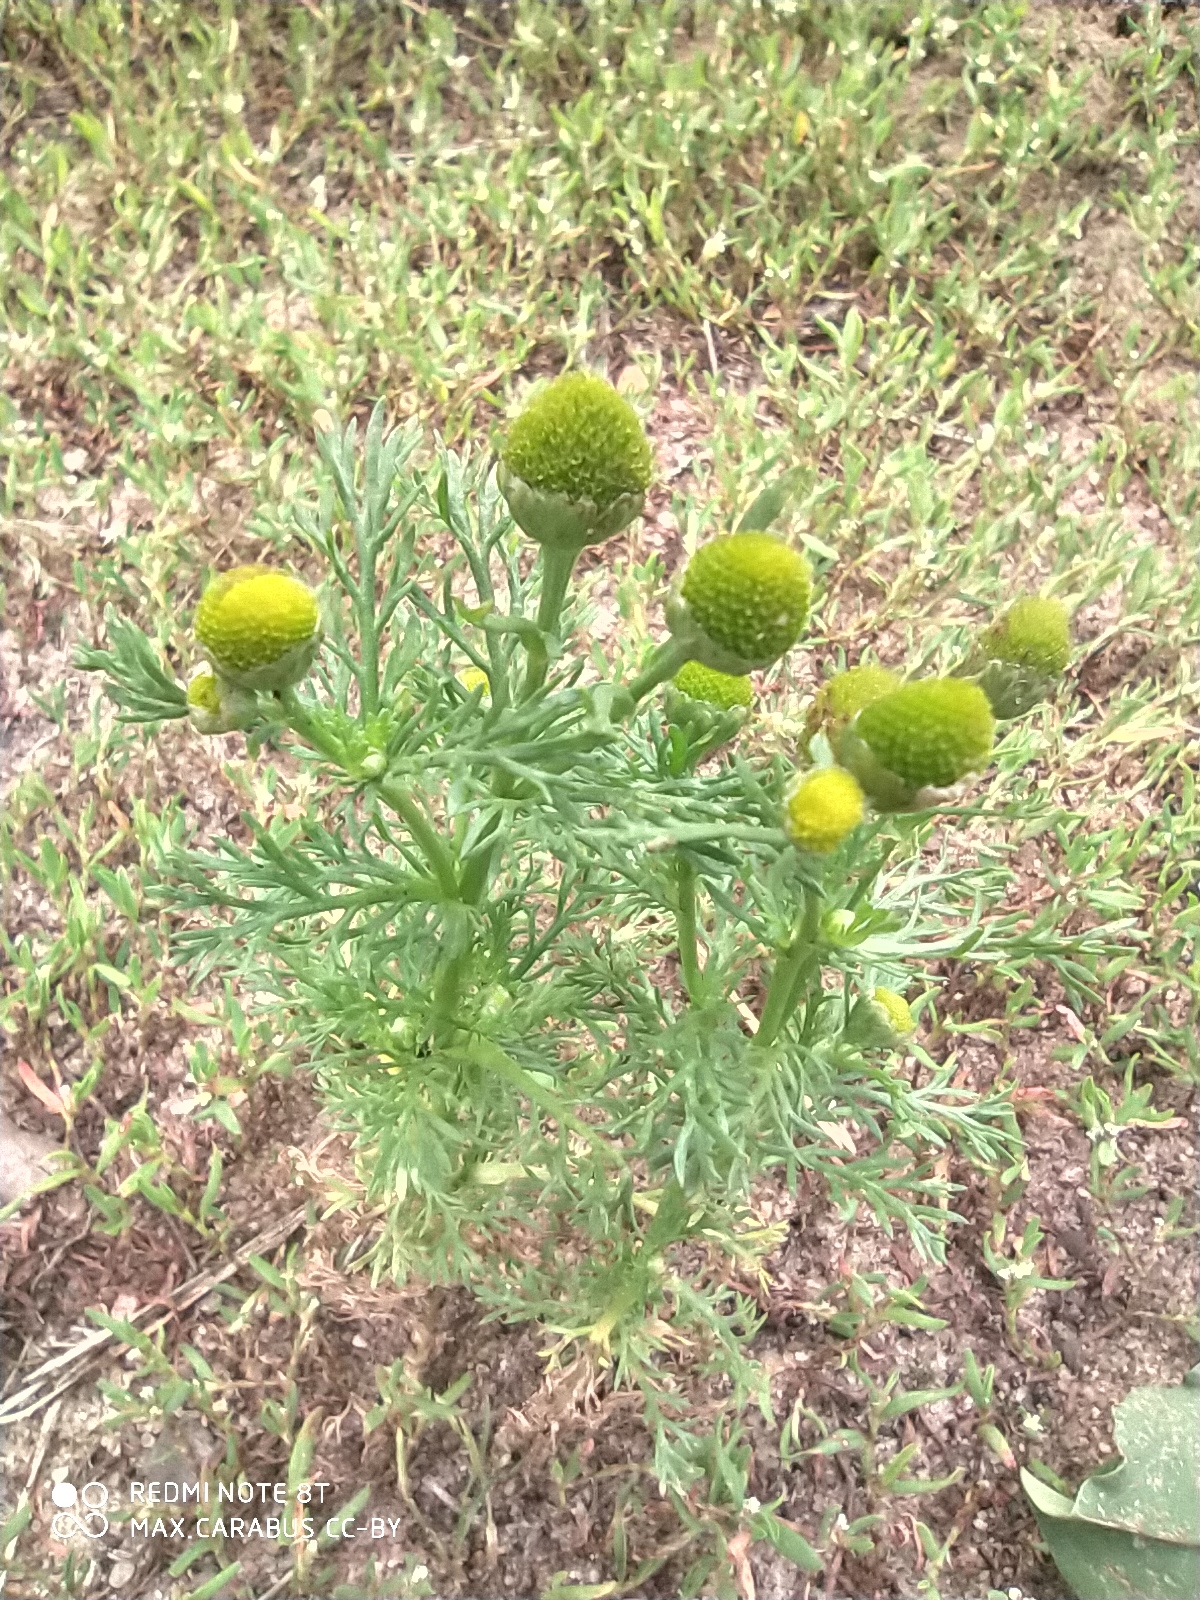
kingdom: Plantae
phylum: Tracheophyta
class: Magnoliopsida
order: Asterales
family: Asteraceae
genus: Matricaria
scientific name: Matricaria discoidea
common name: Disc mayweed
